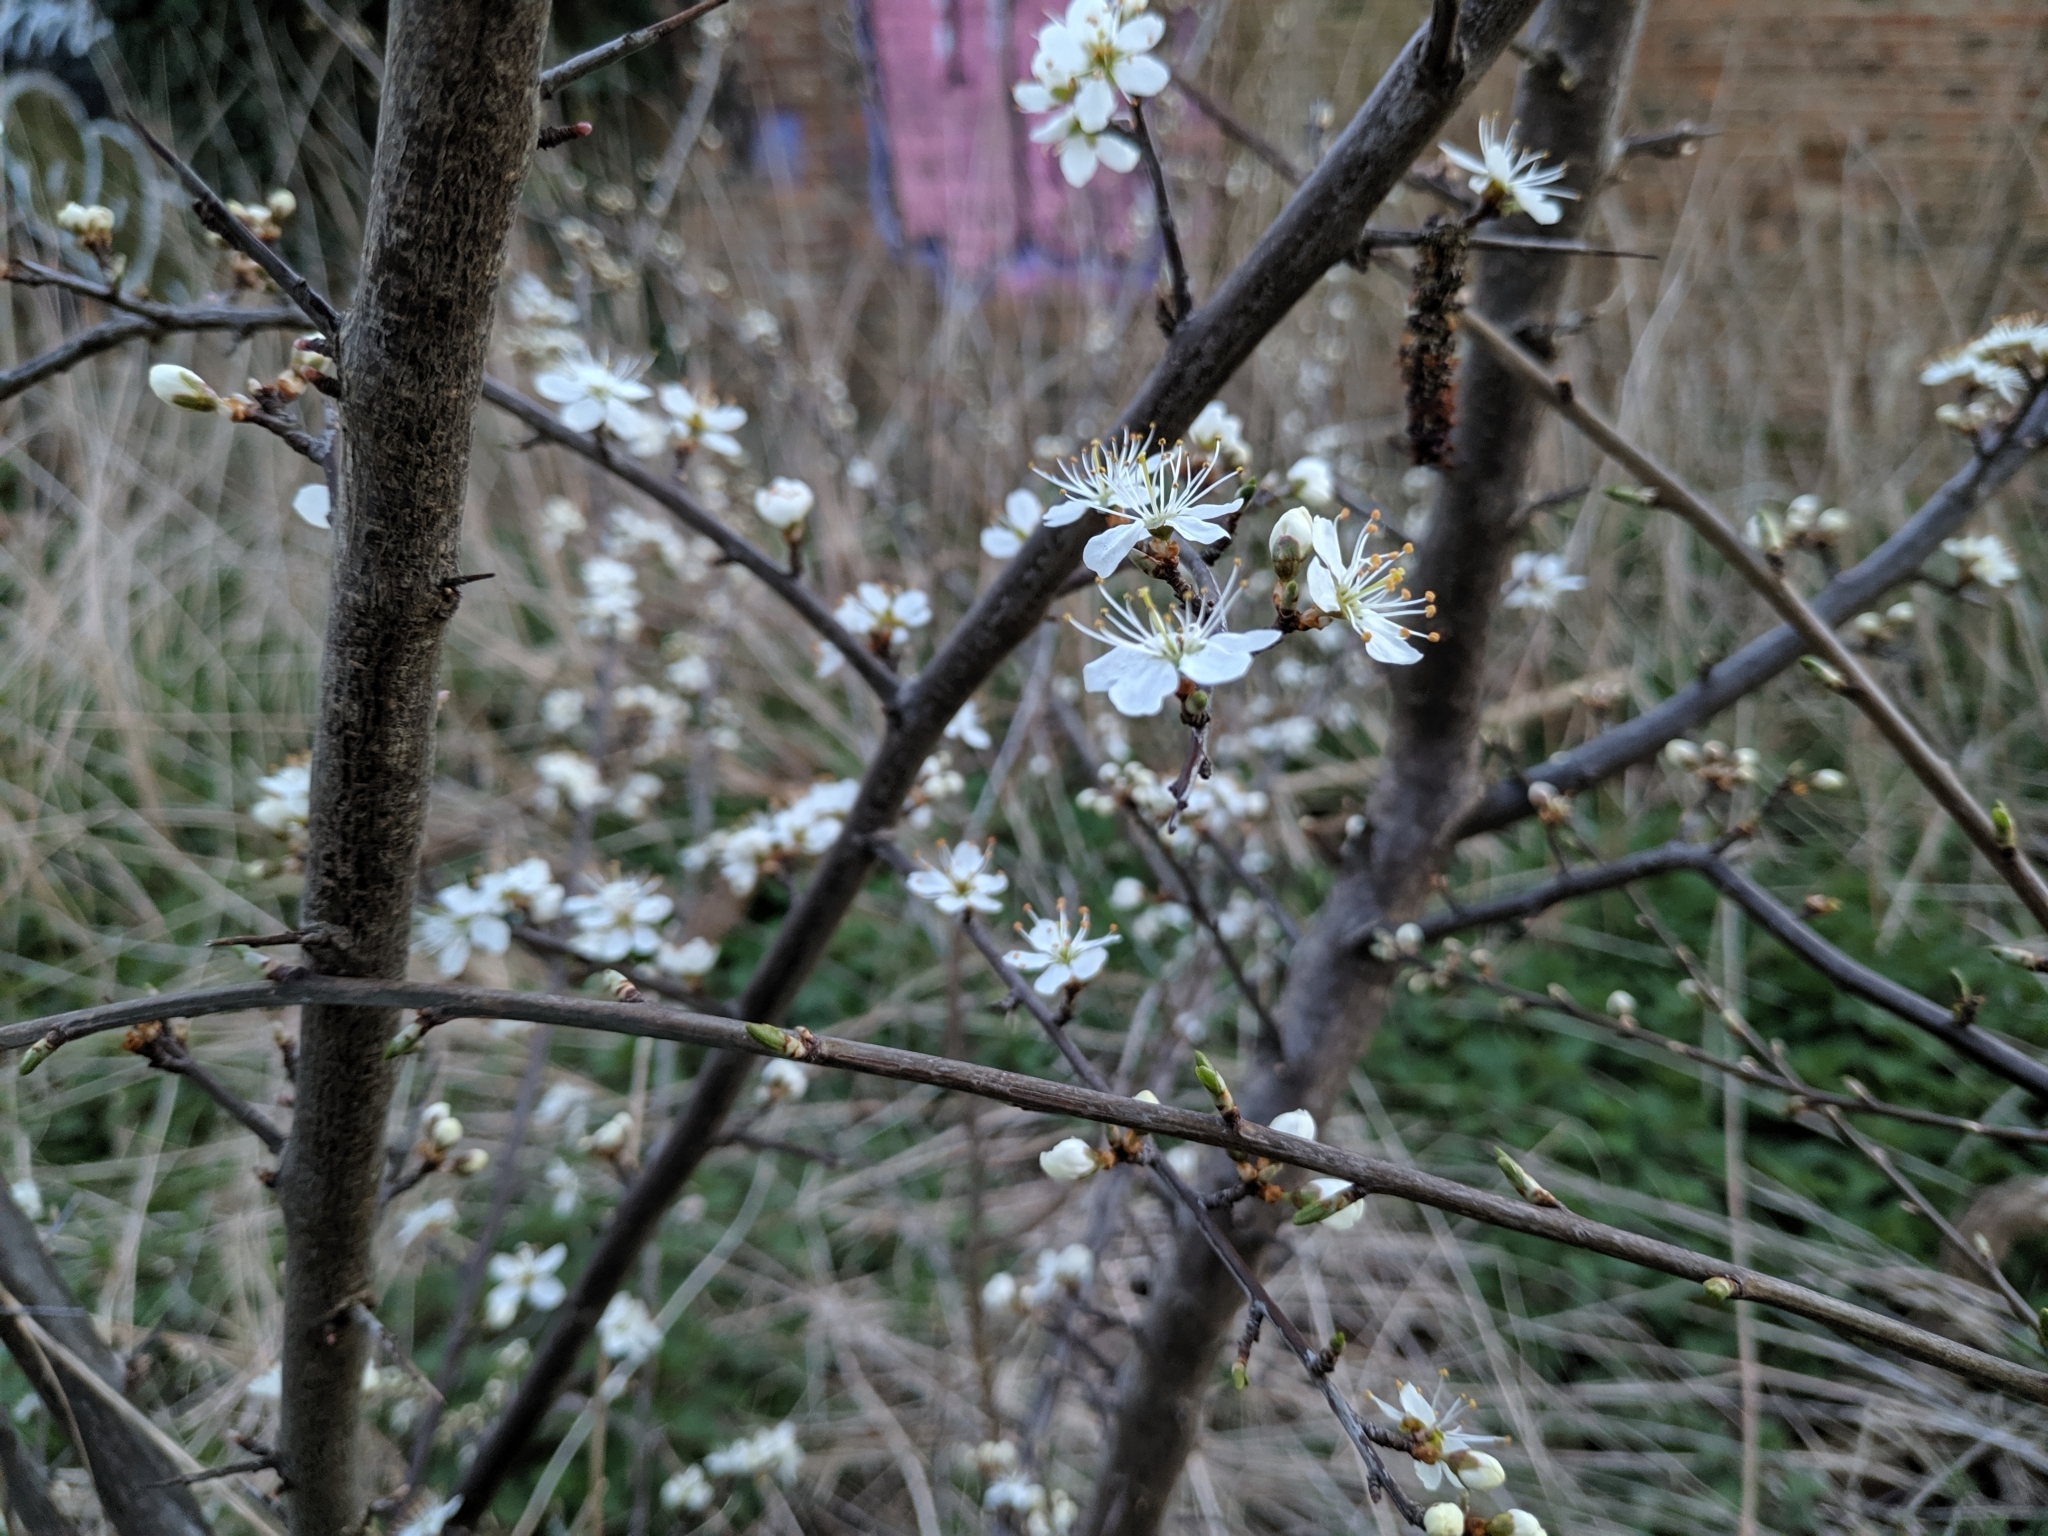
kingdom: Plantae
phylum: Tracheophyta
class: Magnoliopsida
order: Rosales
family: Rosaceae
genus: Prunus
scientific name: Prunus spinosa
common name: Blackthorn
